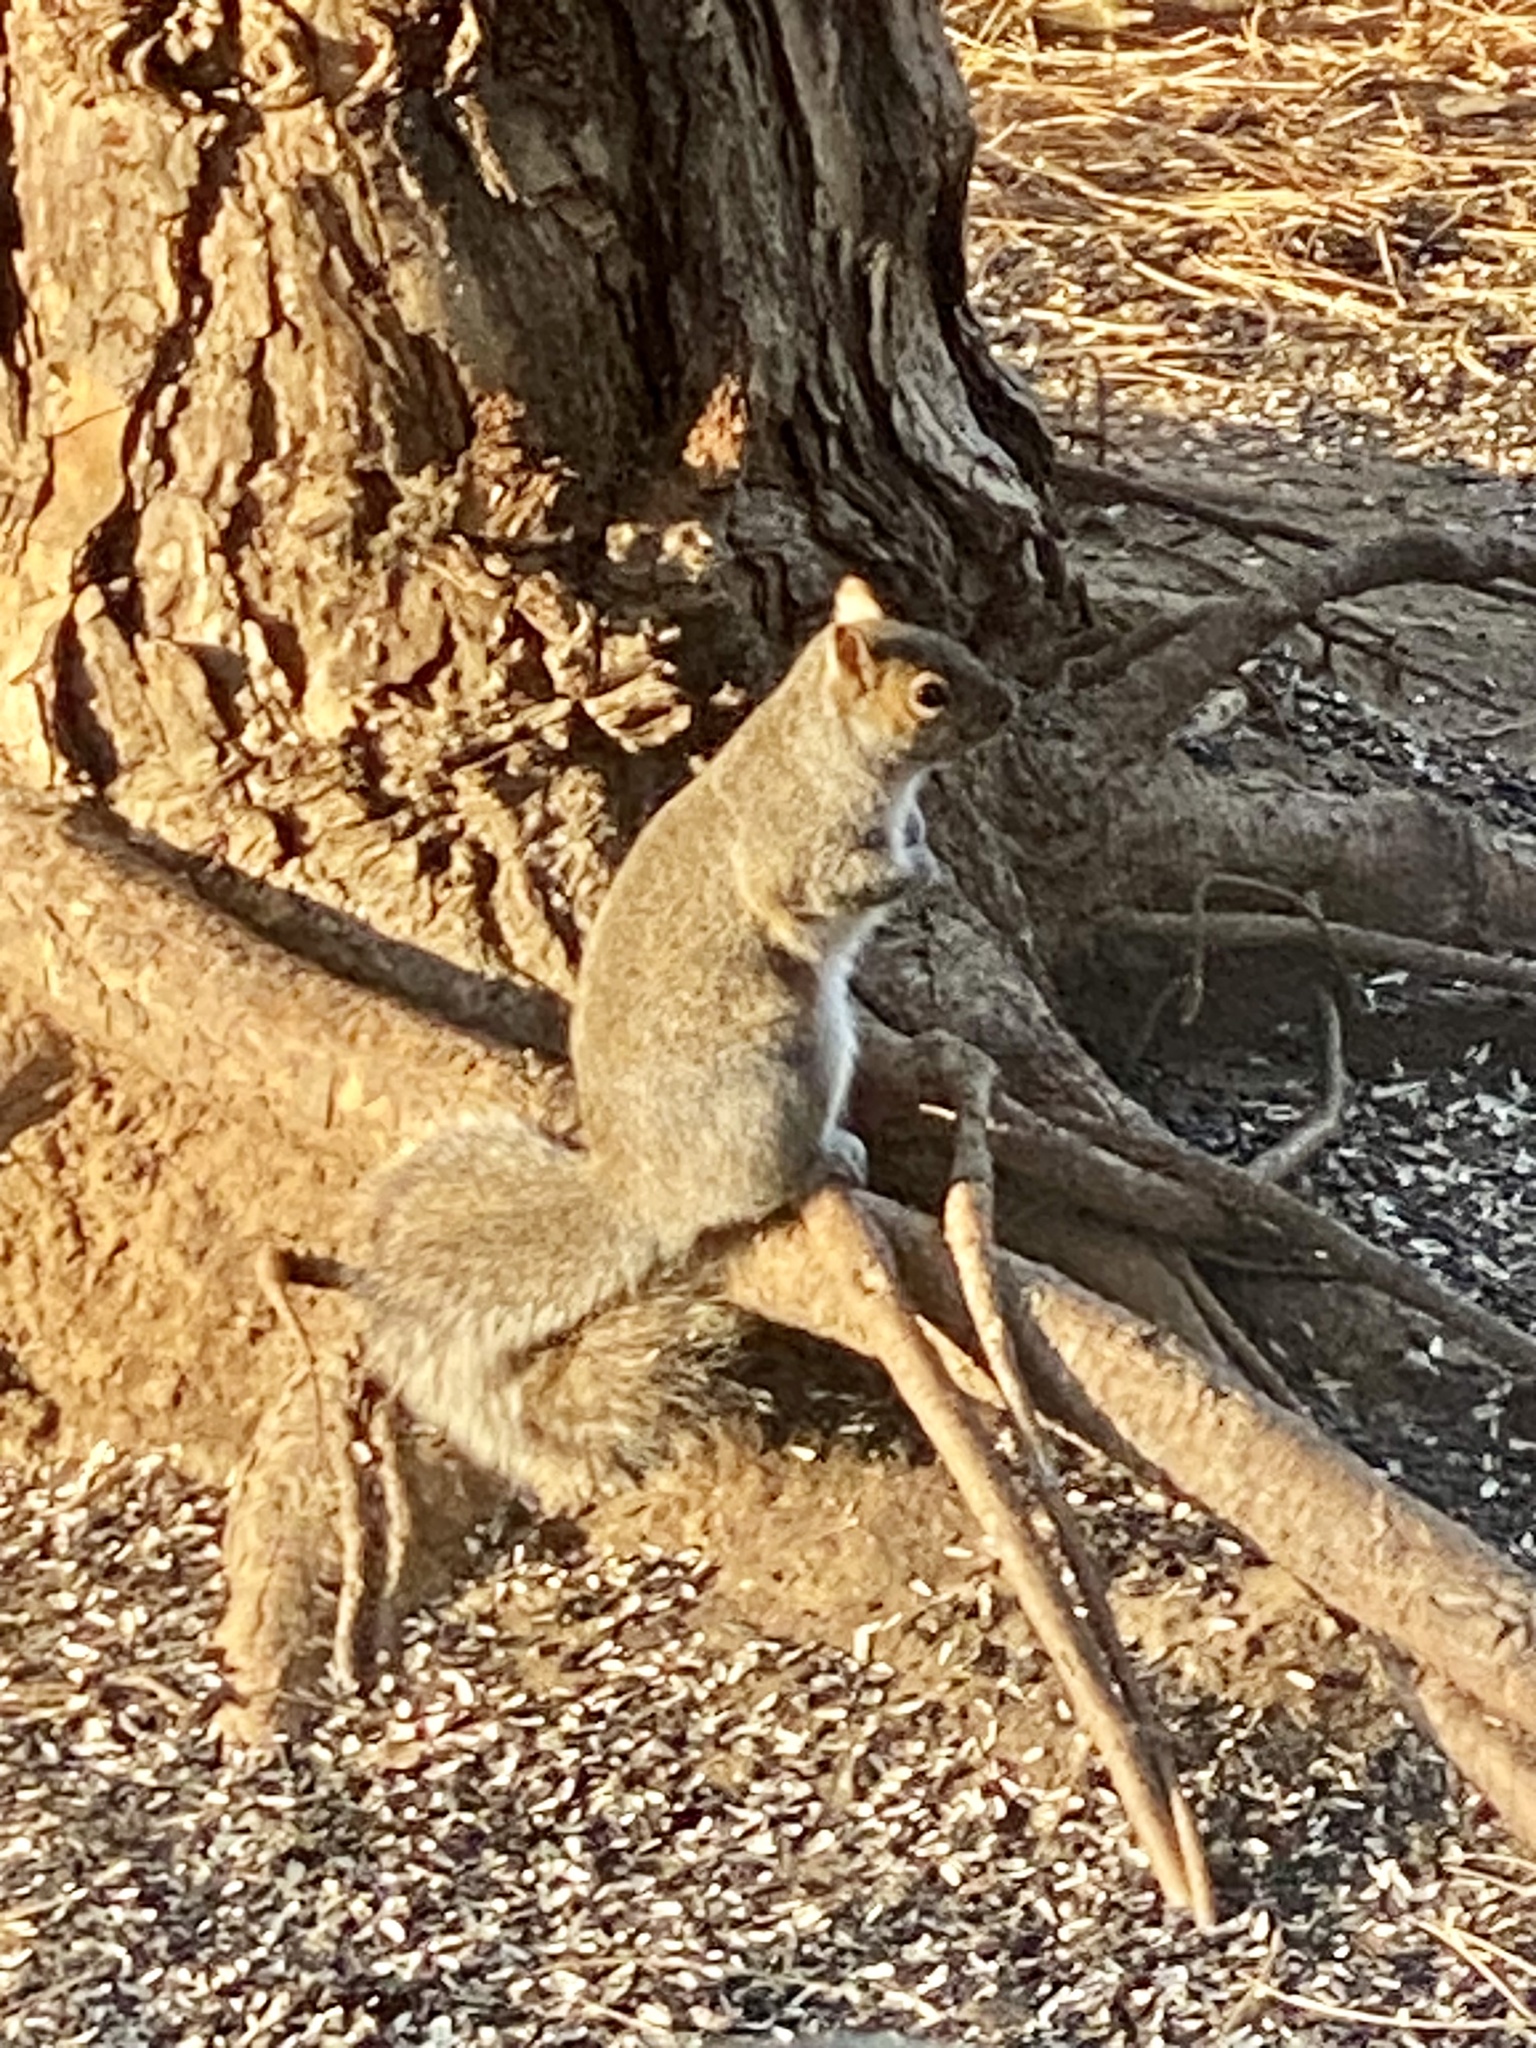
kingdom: Animalia
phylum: Chordata
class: Mammalia
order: Rodentia
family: Sciuridae
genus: Sciurus
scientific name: Sciurus carolinensis
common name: Eastern gray squirrel
